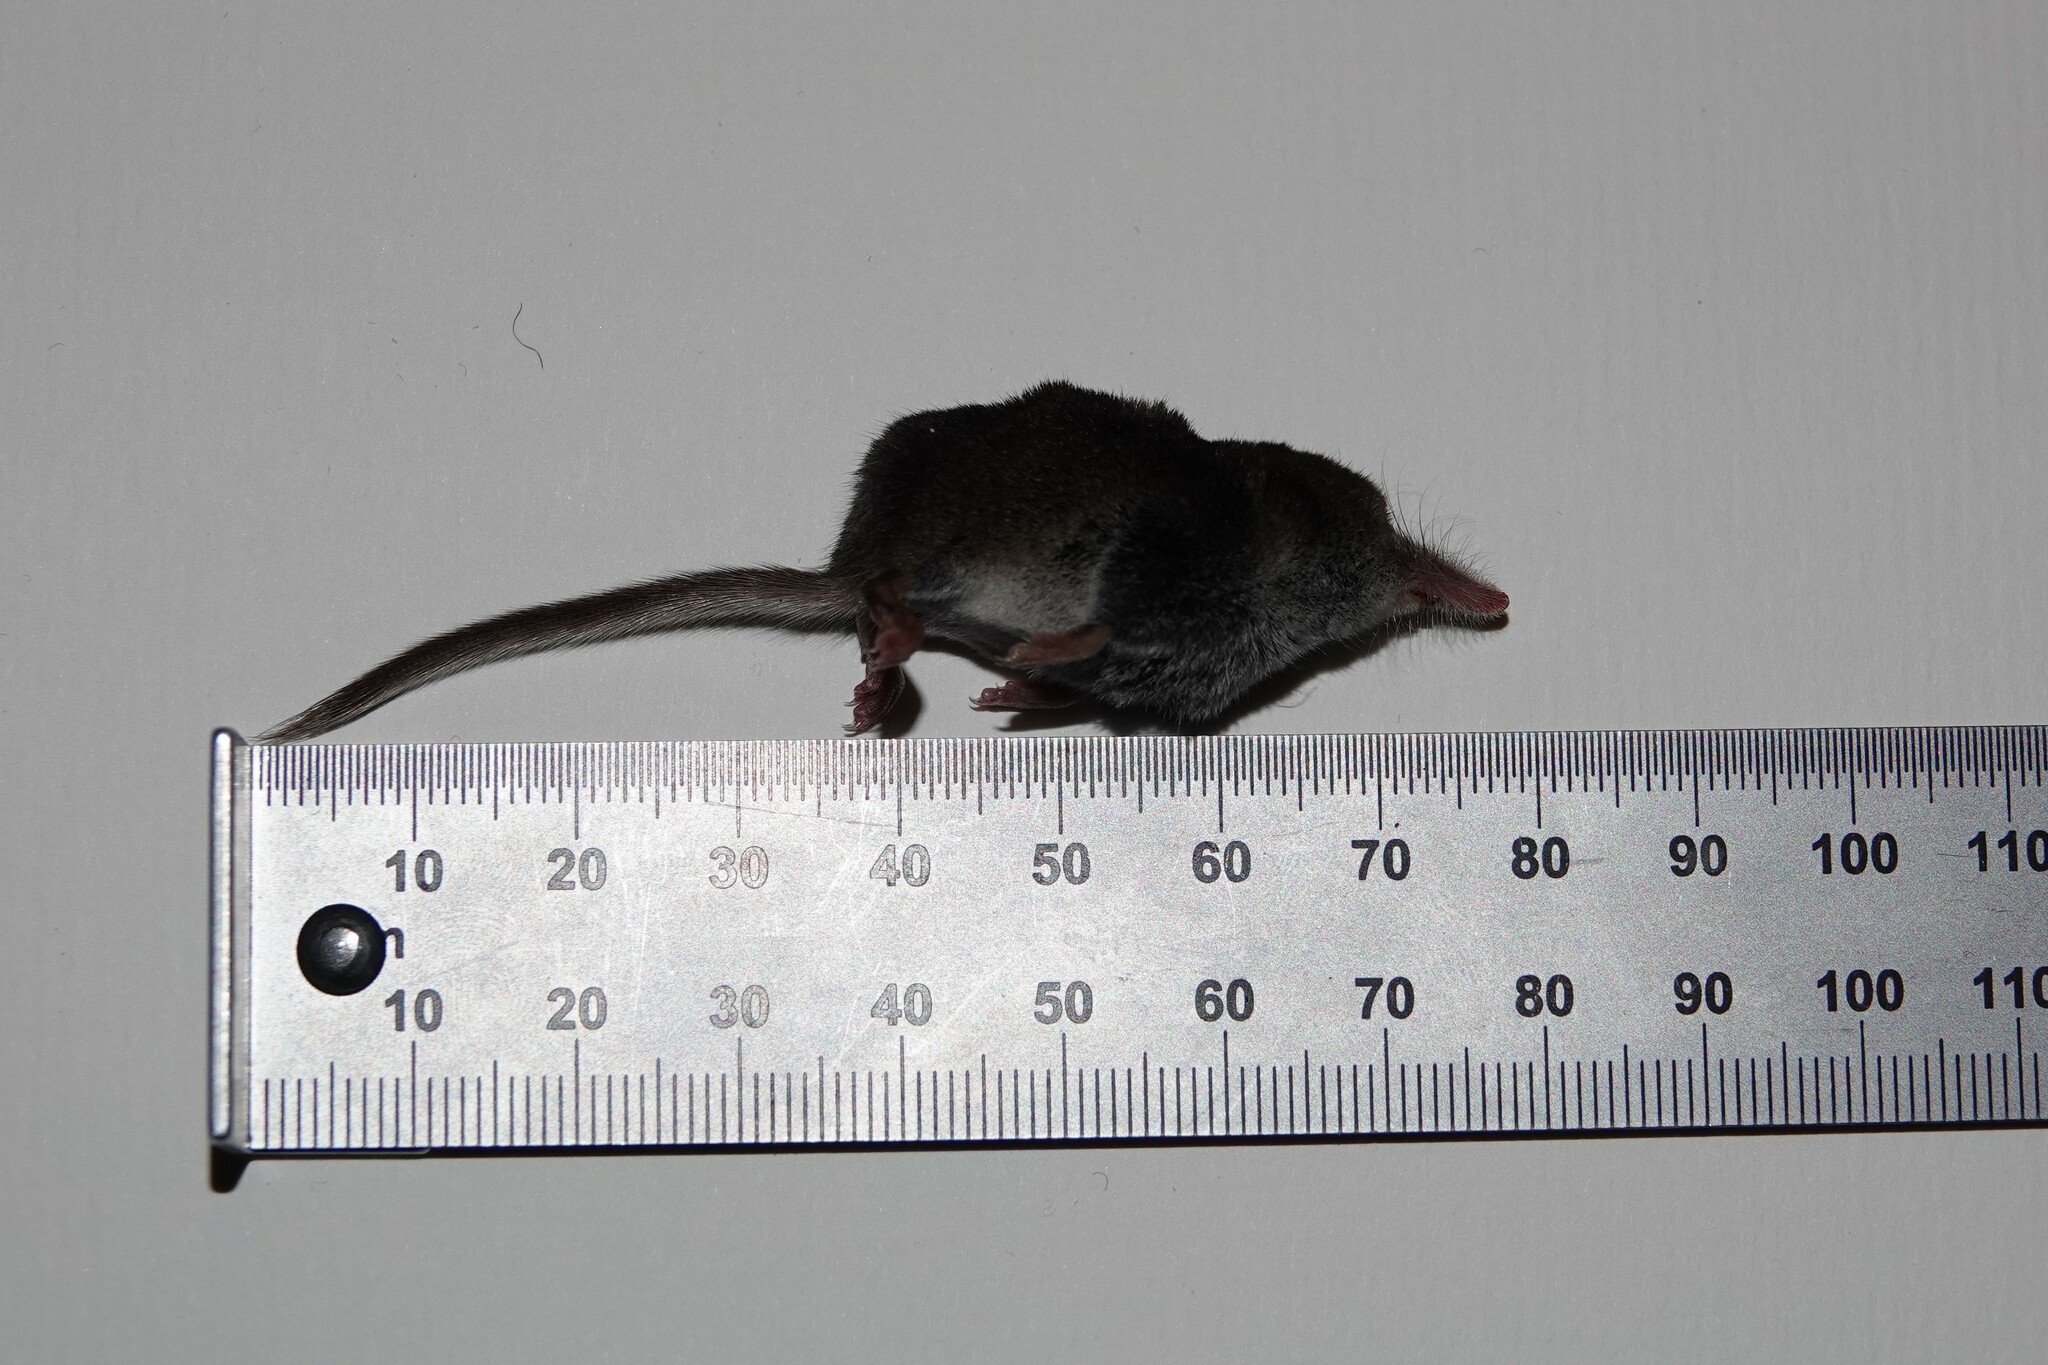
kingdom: Animalia
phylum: Chordata
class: Mammalia
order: Soricomorpha
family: Soricidae
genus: Sorex
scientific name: Sorex minutus
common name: Eurasian pygmy shrew
